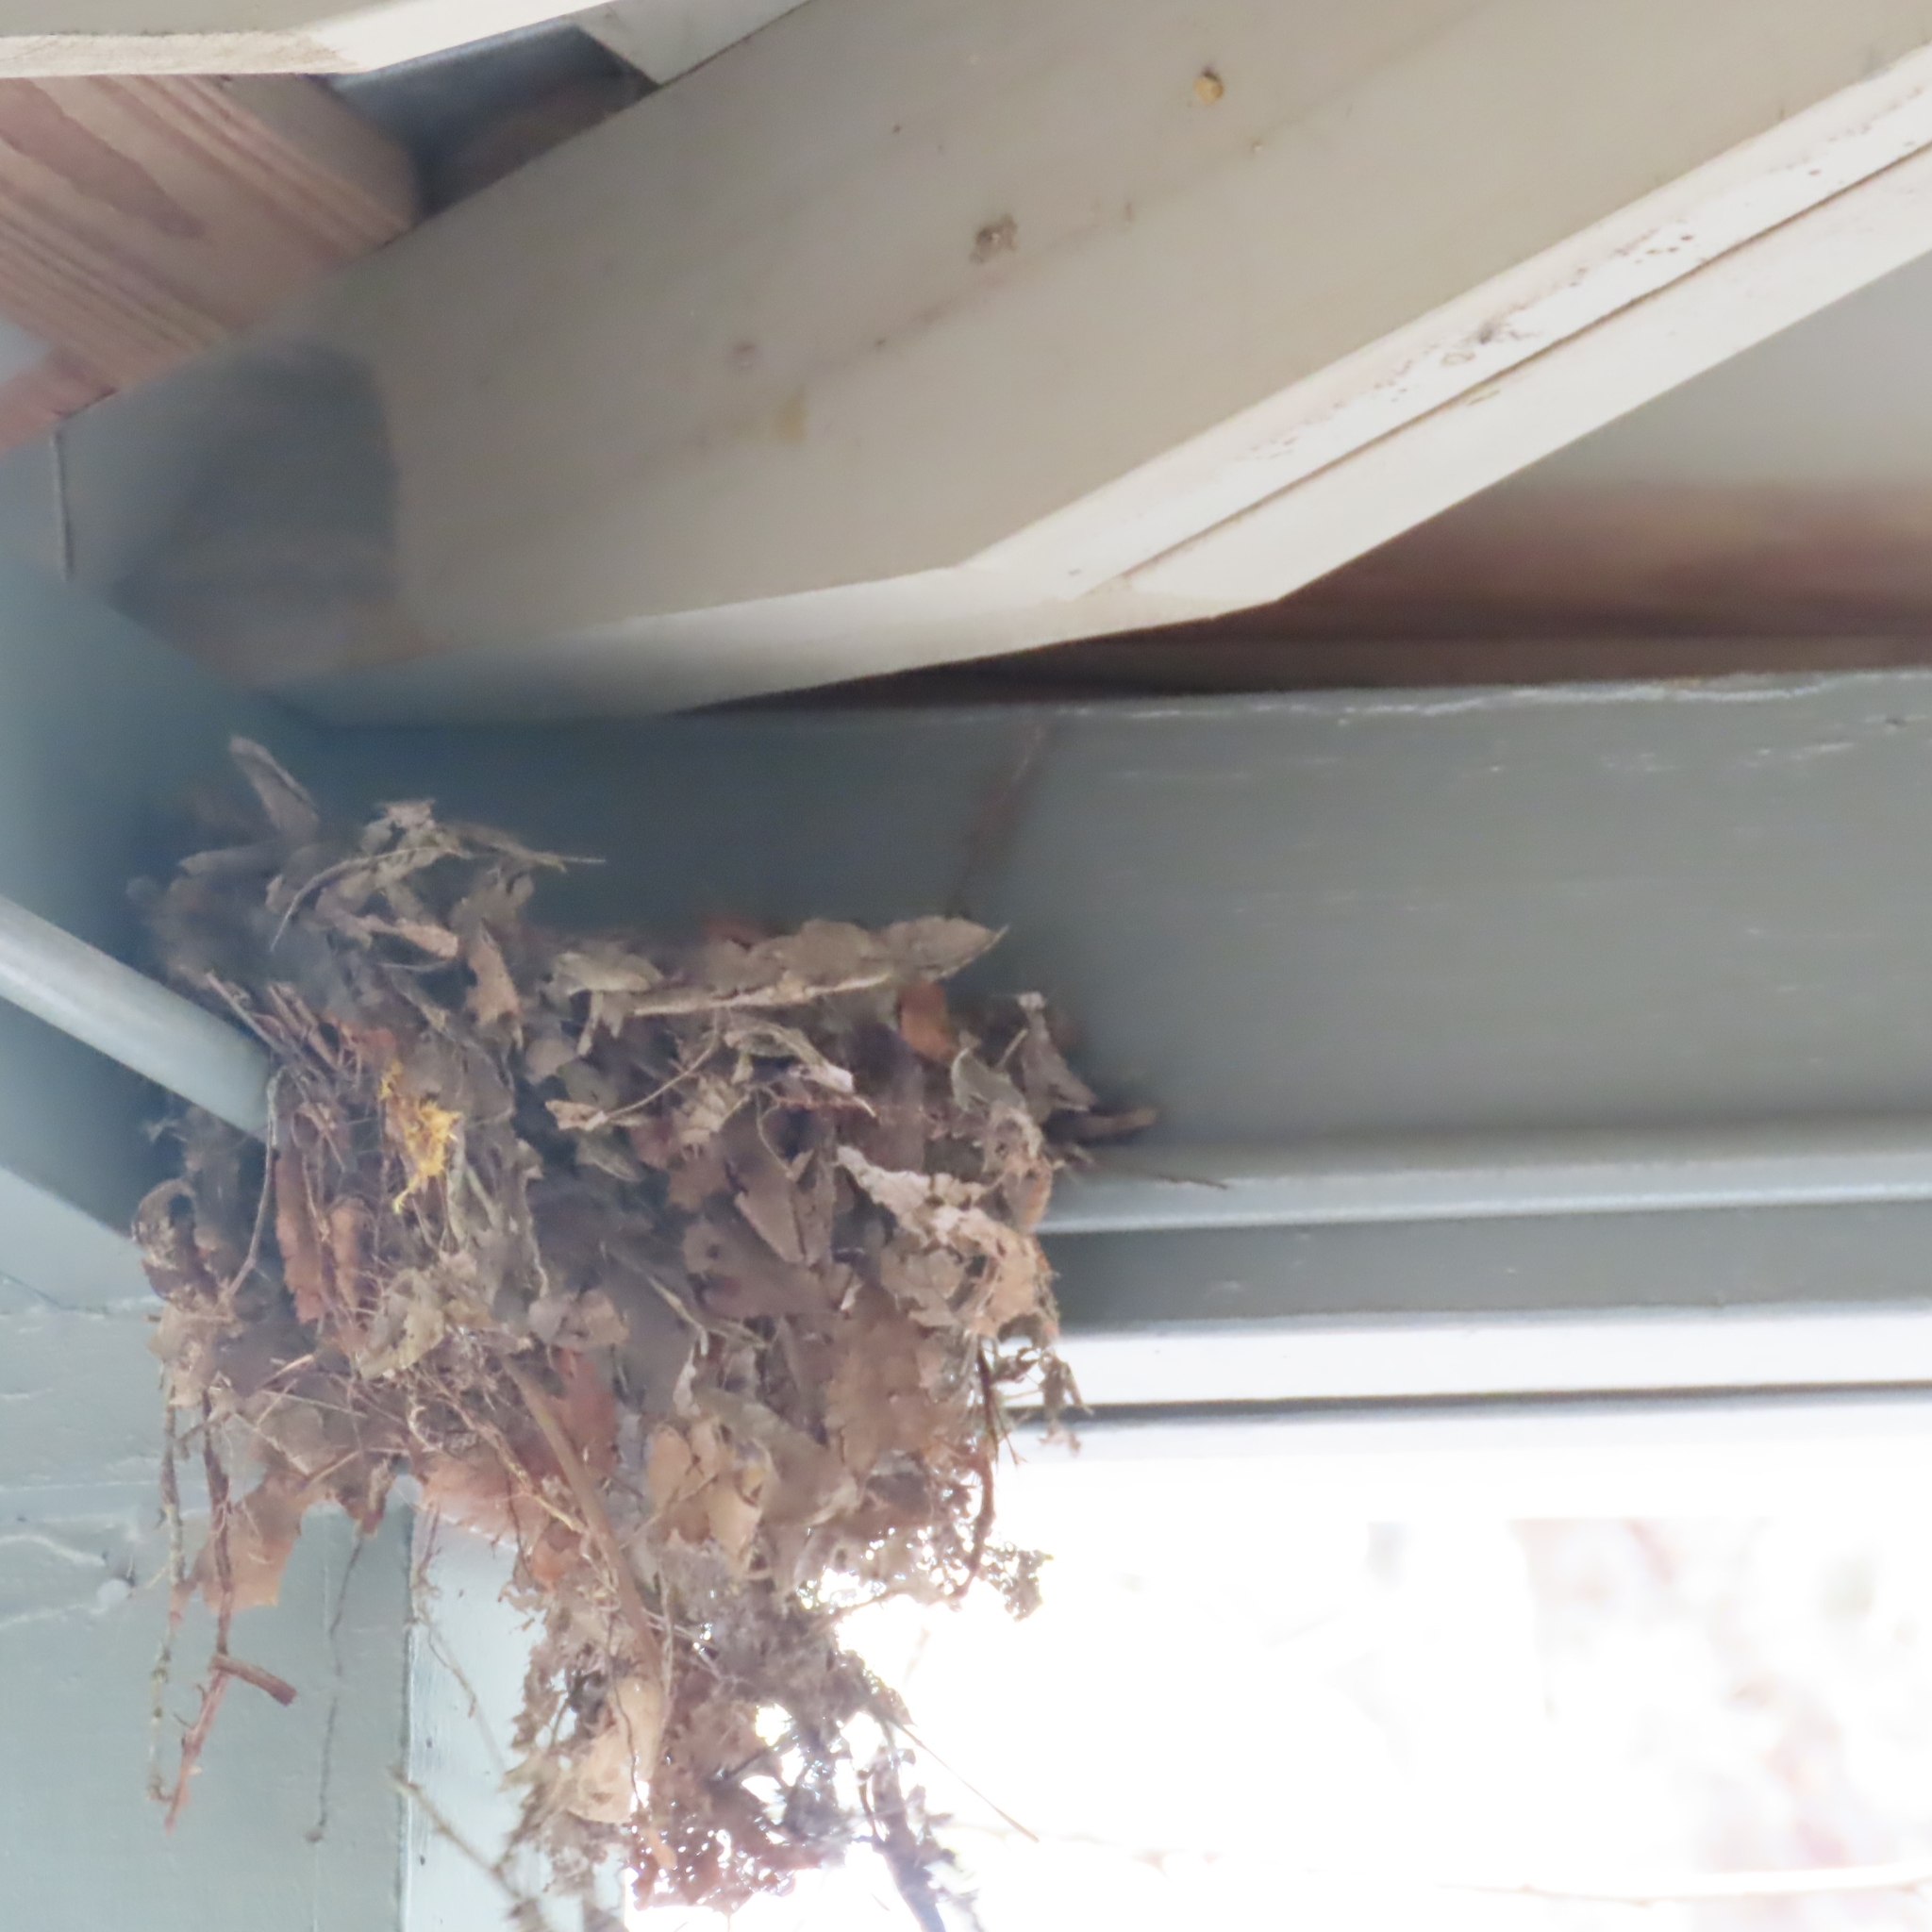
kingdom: Animalia
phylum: Chordata
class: Aves
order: Passeriformes
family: Troglodytidae
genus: Thryothorus
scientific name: Thryothorus ludovicianus
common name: Carolina wren
